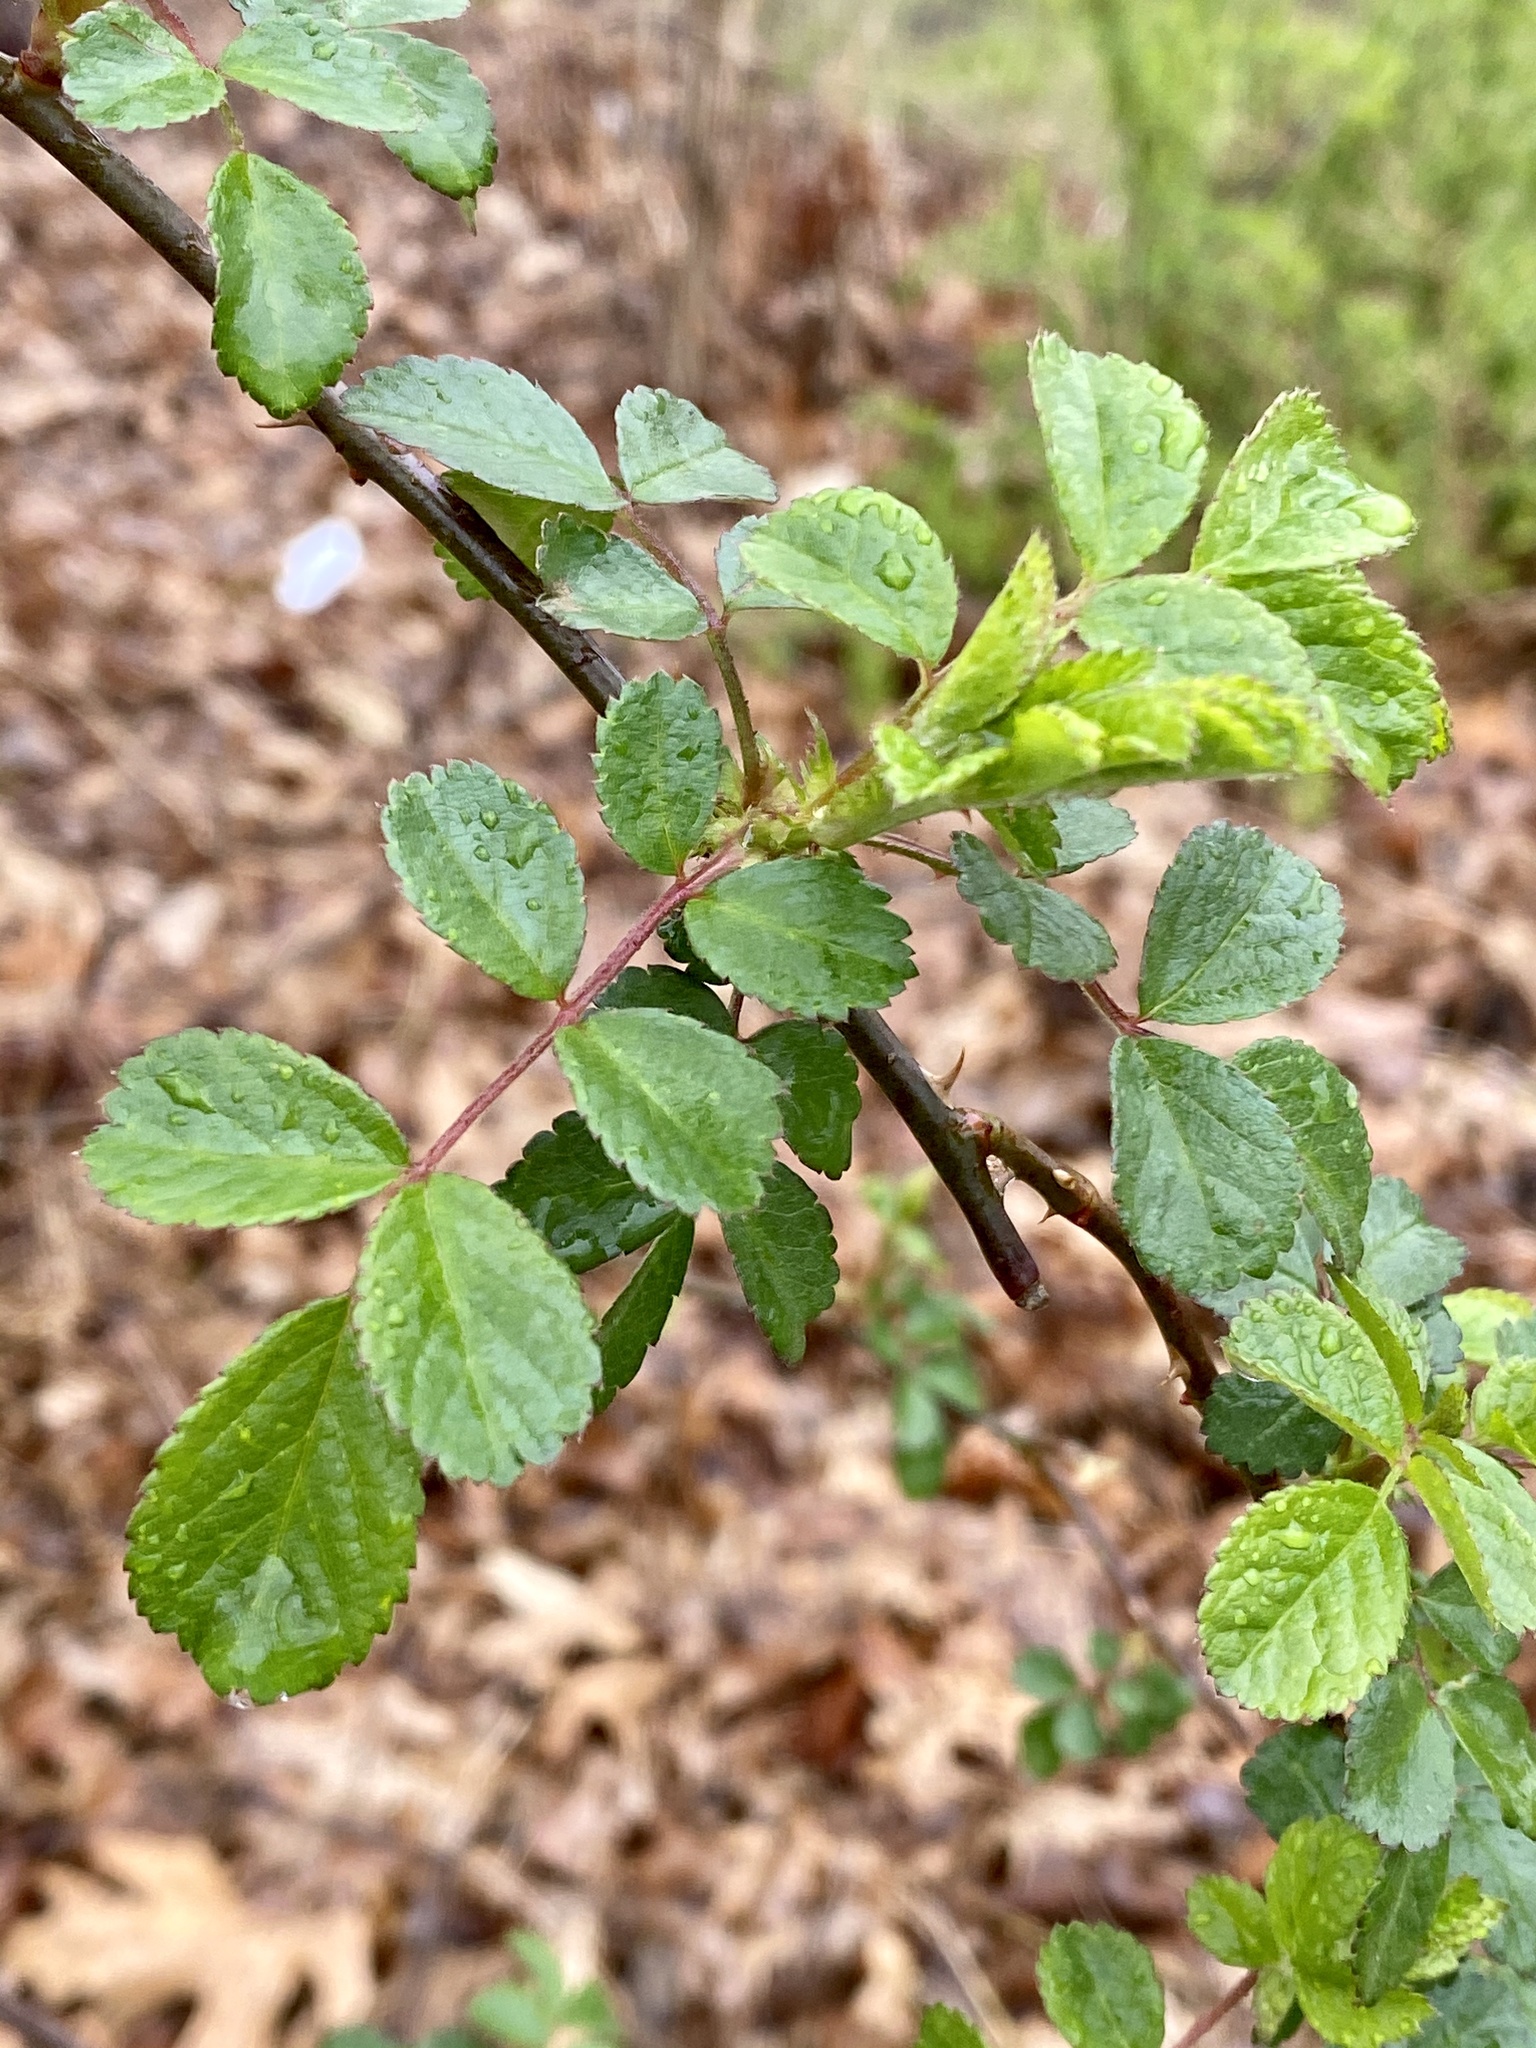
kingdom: Plantae
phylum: Tracheophyta
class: Magnoliopsida
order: Rosales
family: Rosaceae
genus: Rosa
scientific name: Rosa multiflora
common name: Multiflora rose
